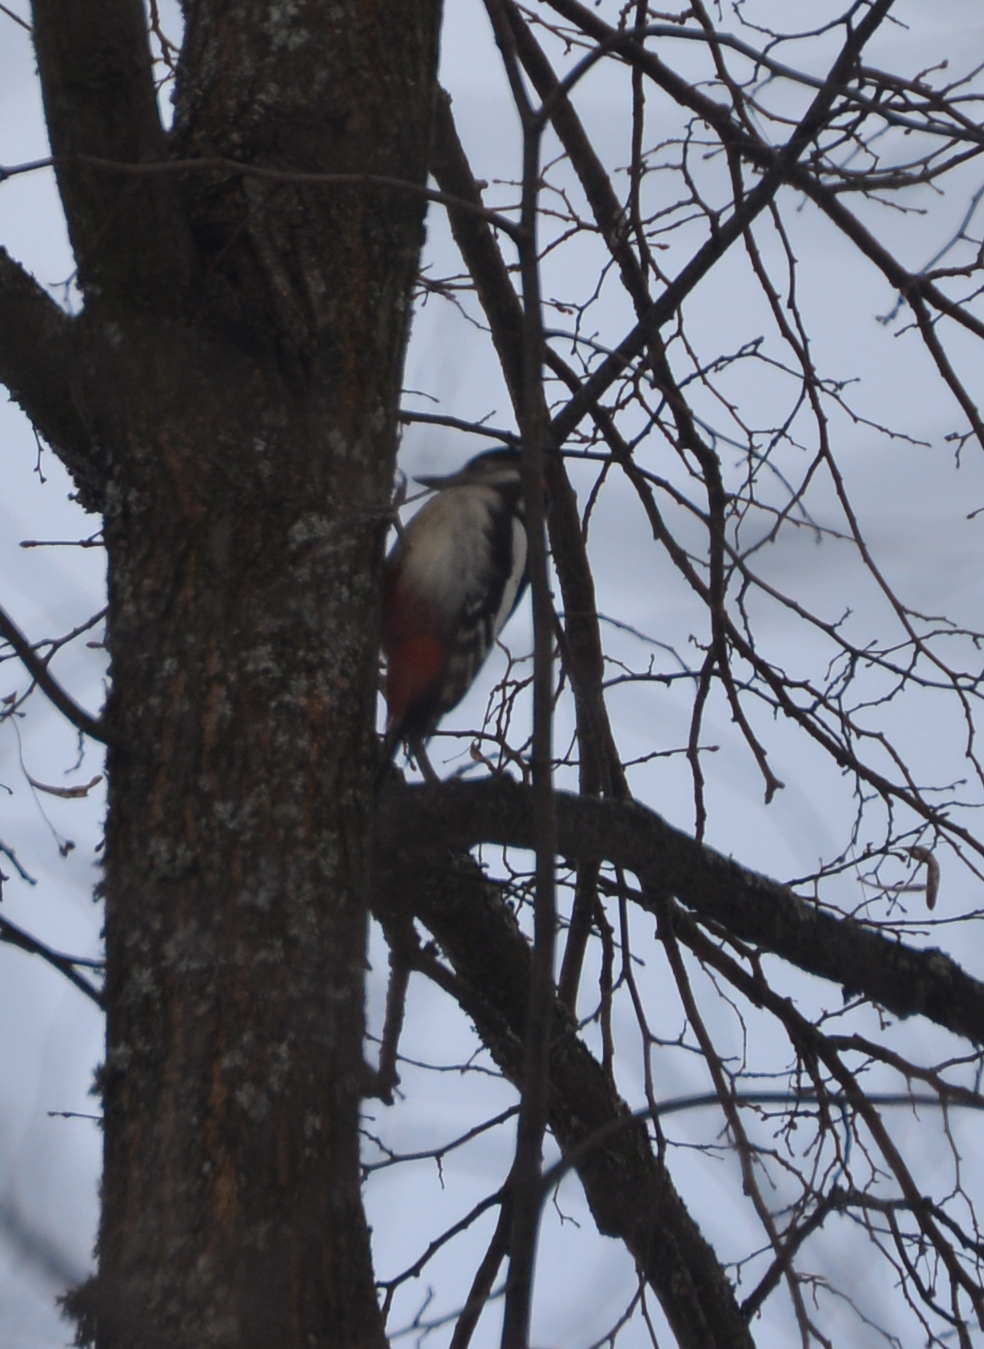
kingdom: Animalia
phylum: Chordata
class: Aves
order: Piciformes
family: Picidae
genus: Dendrocopos
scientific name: Dendrocopos major
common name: Great spotted woodpecker
